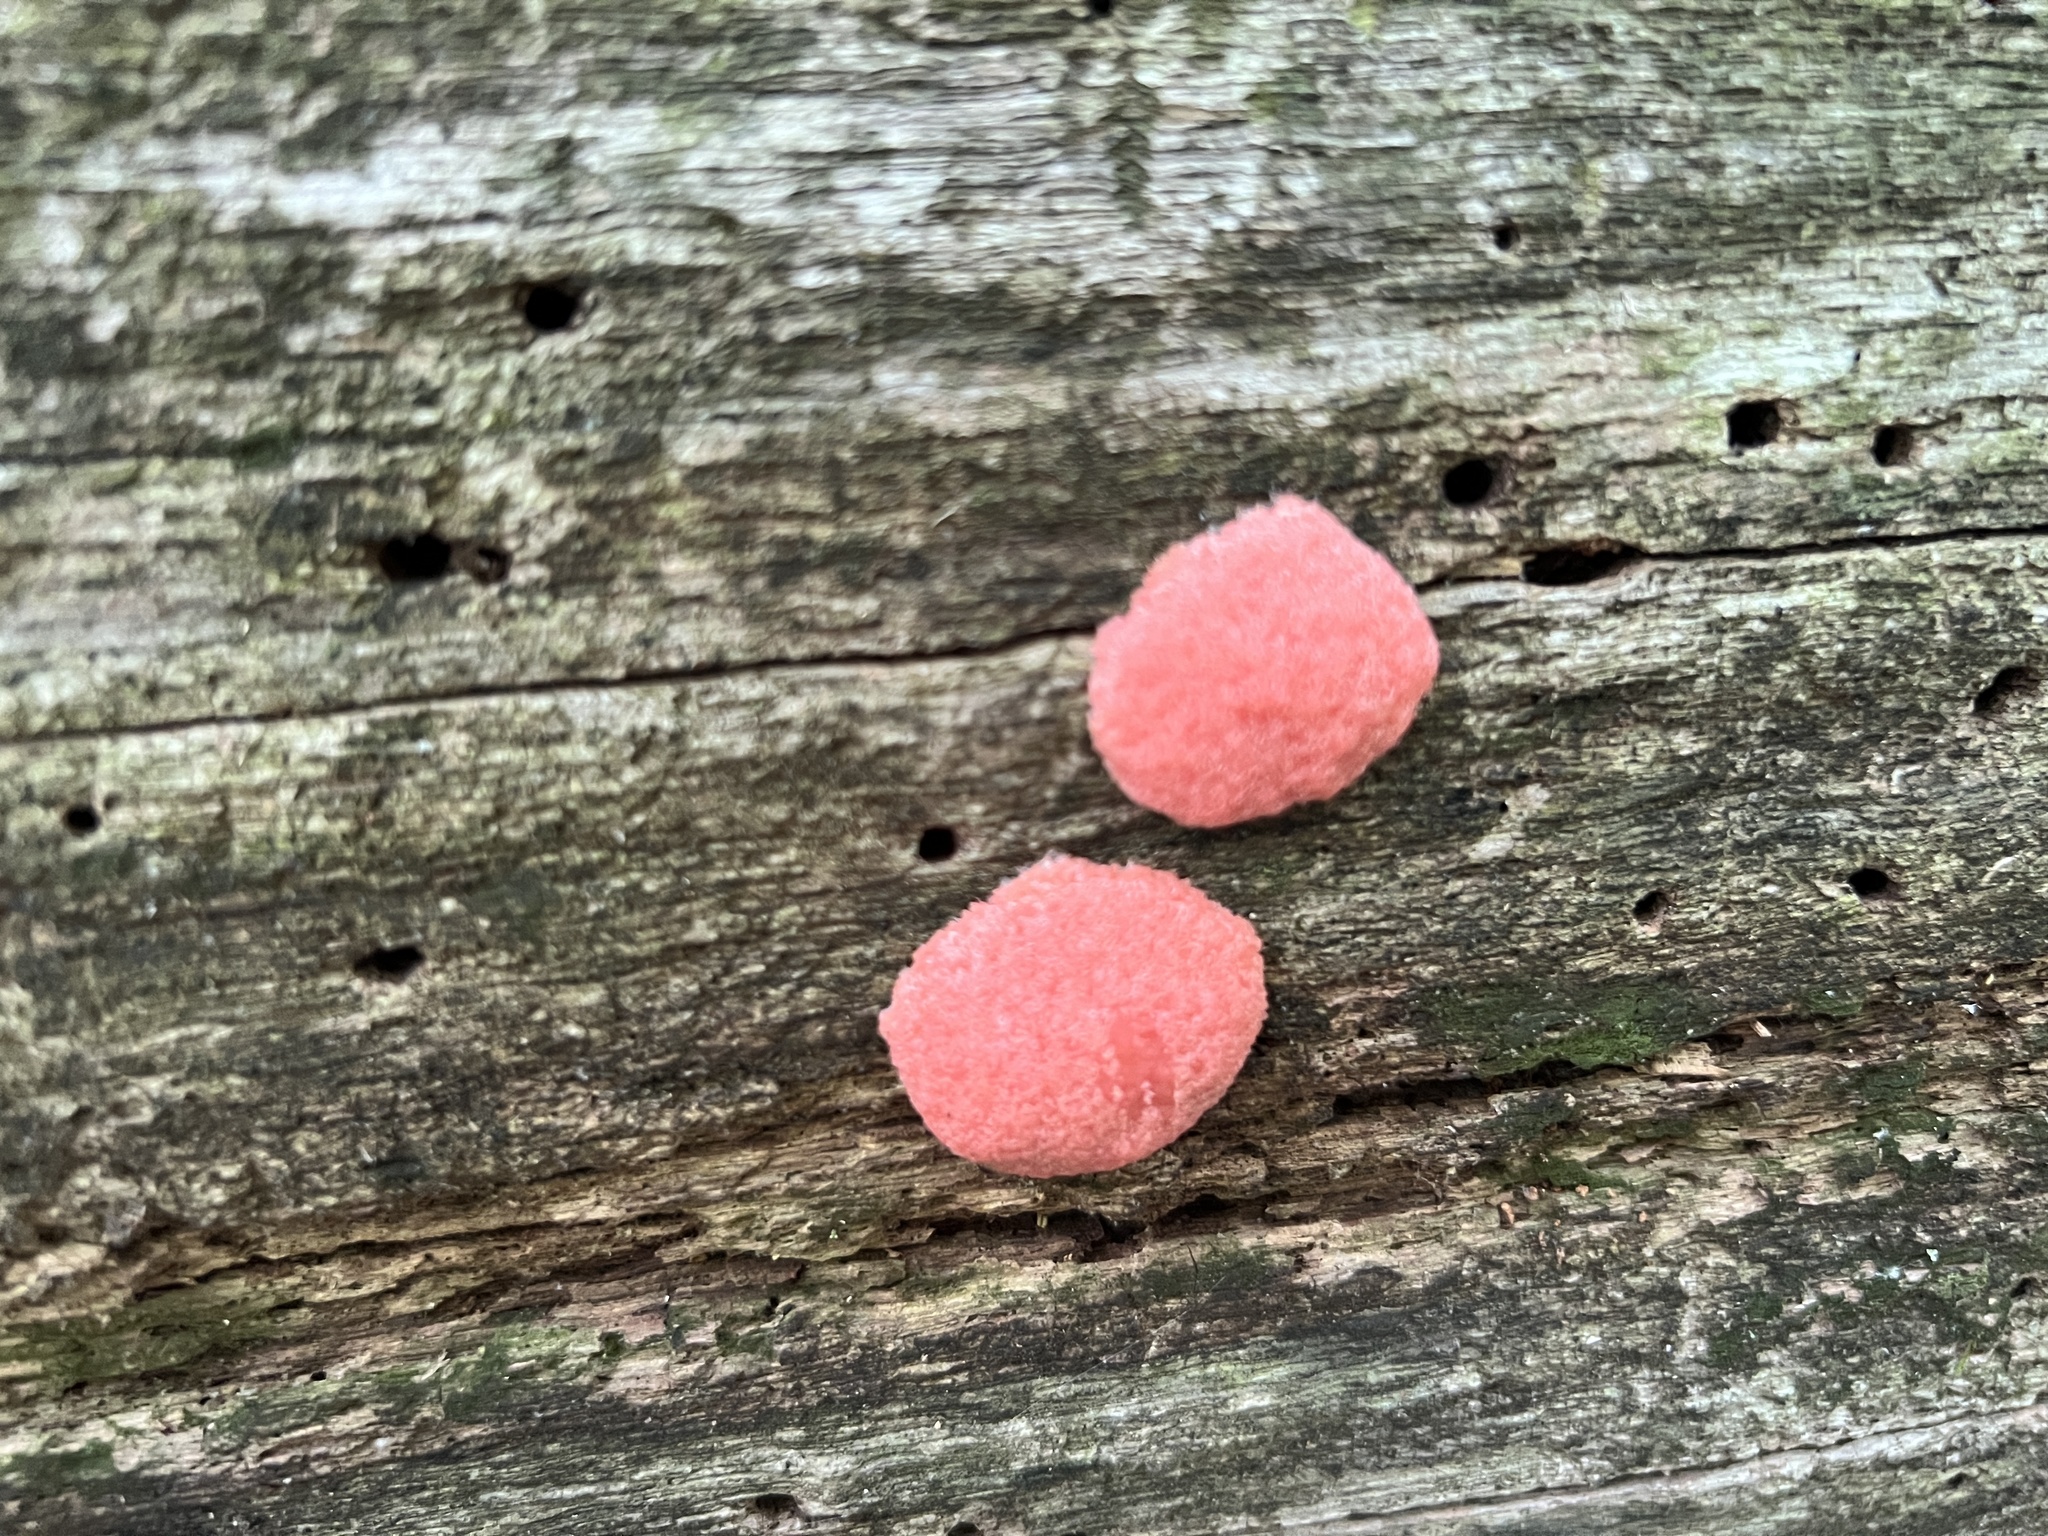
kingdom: Protozoa
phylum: Mycetozoa
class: Myxomycetes
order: Cribrariales
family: Tubiferaceae
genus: Tubifera
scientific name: Tubifera magna
